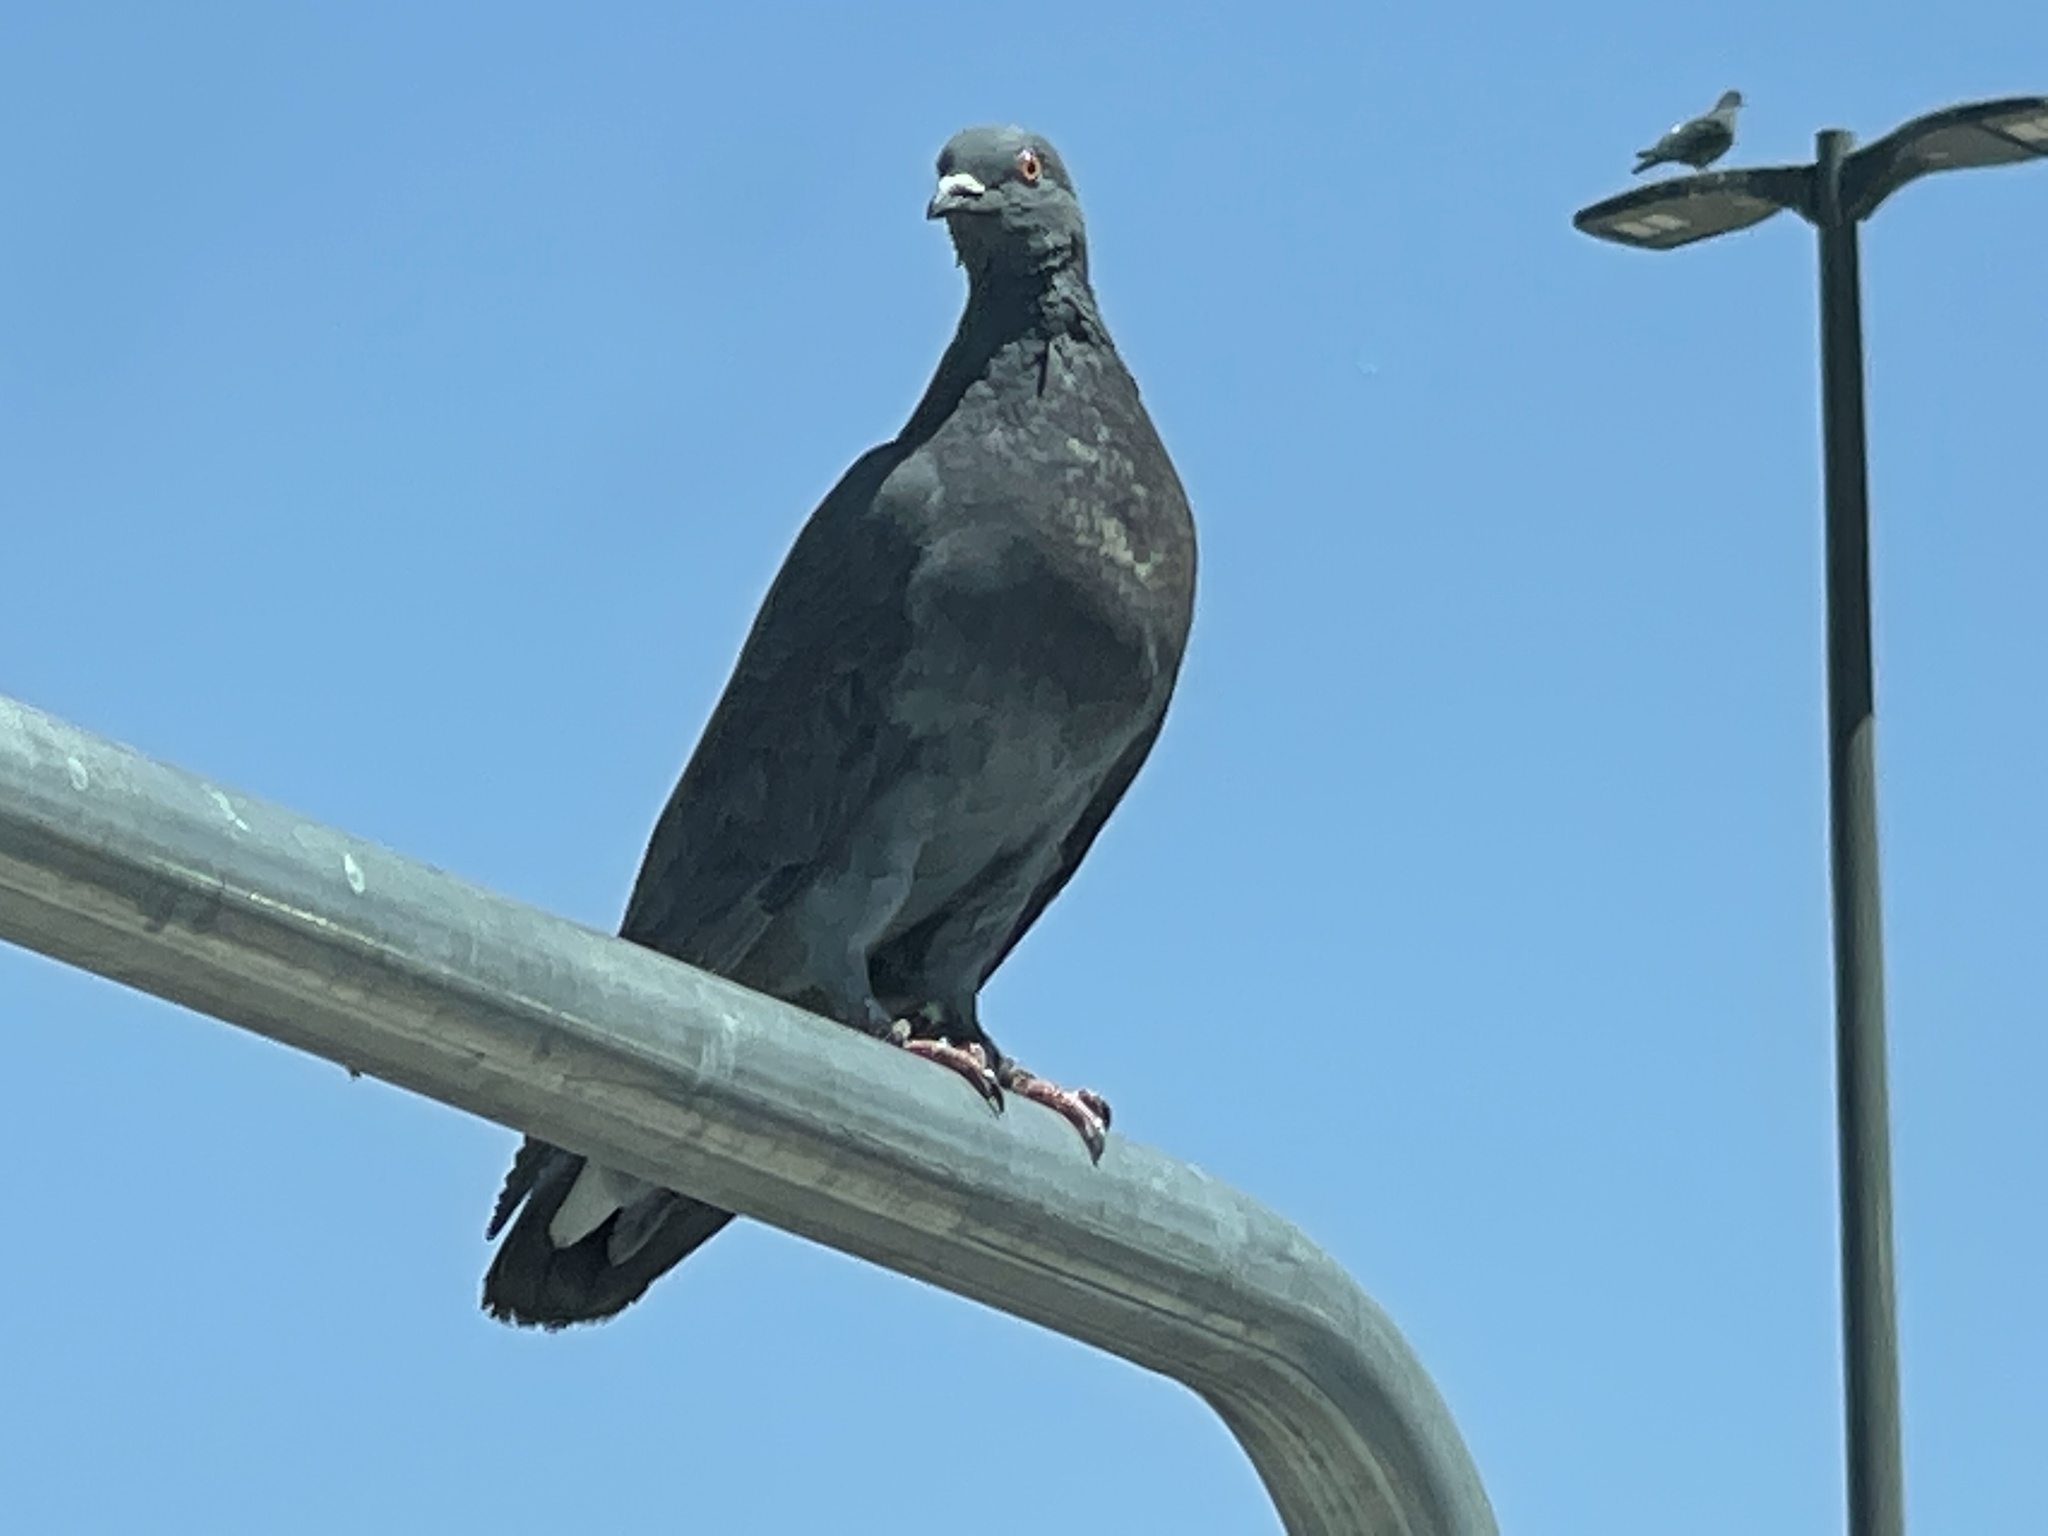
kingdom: Animalia
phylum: Chordata
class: Aves
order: Columbiformes
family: Columbidae
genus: Columba
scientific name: Columba livia
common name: Rock pigeon
